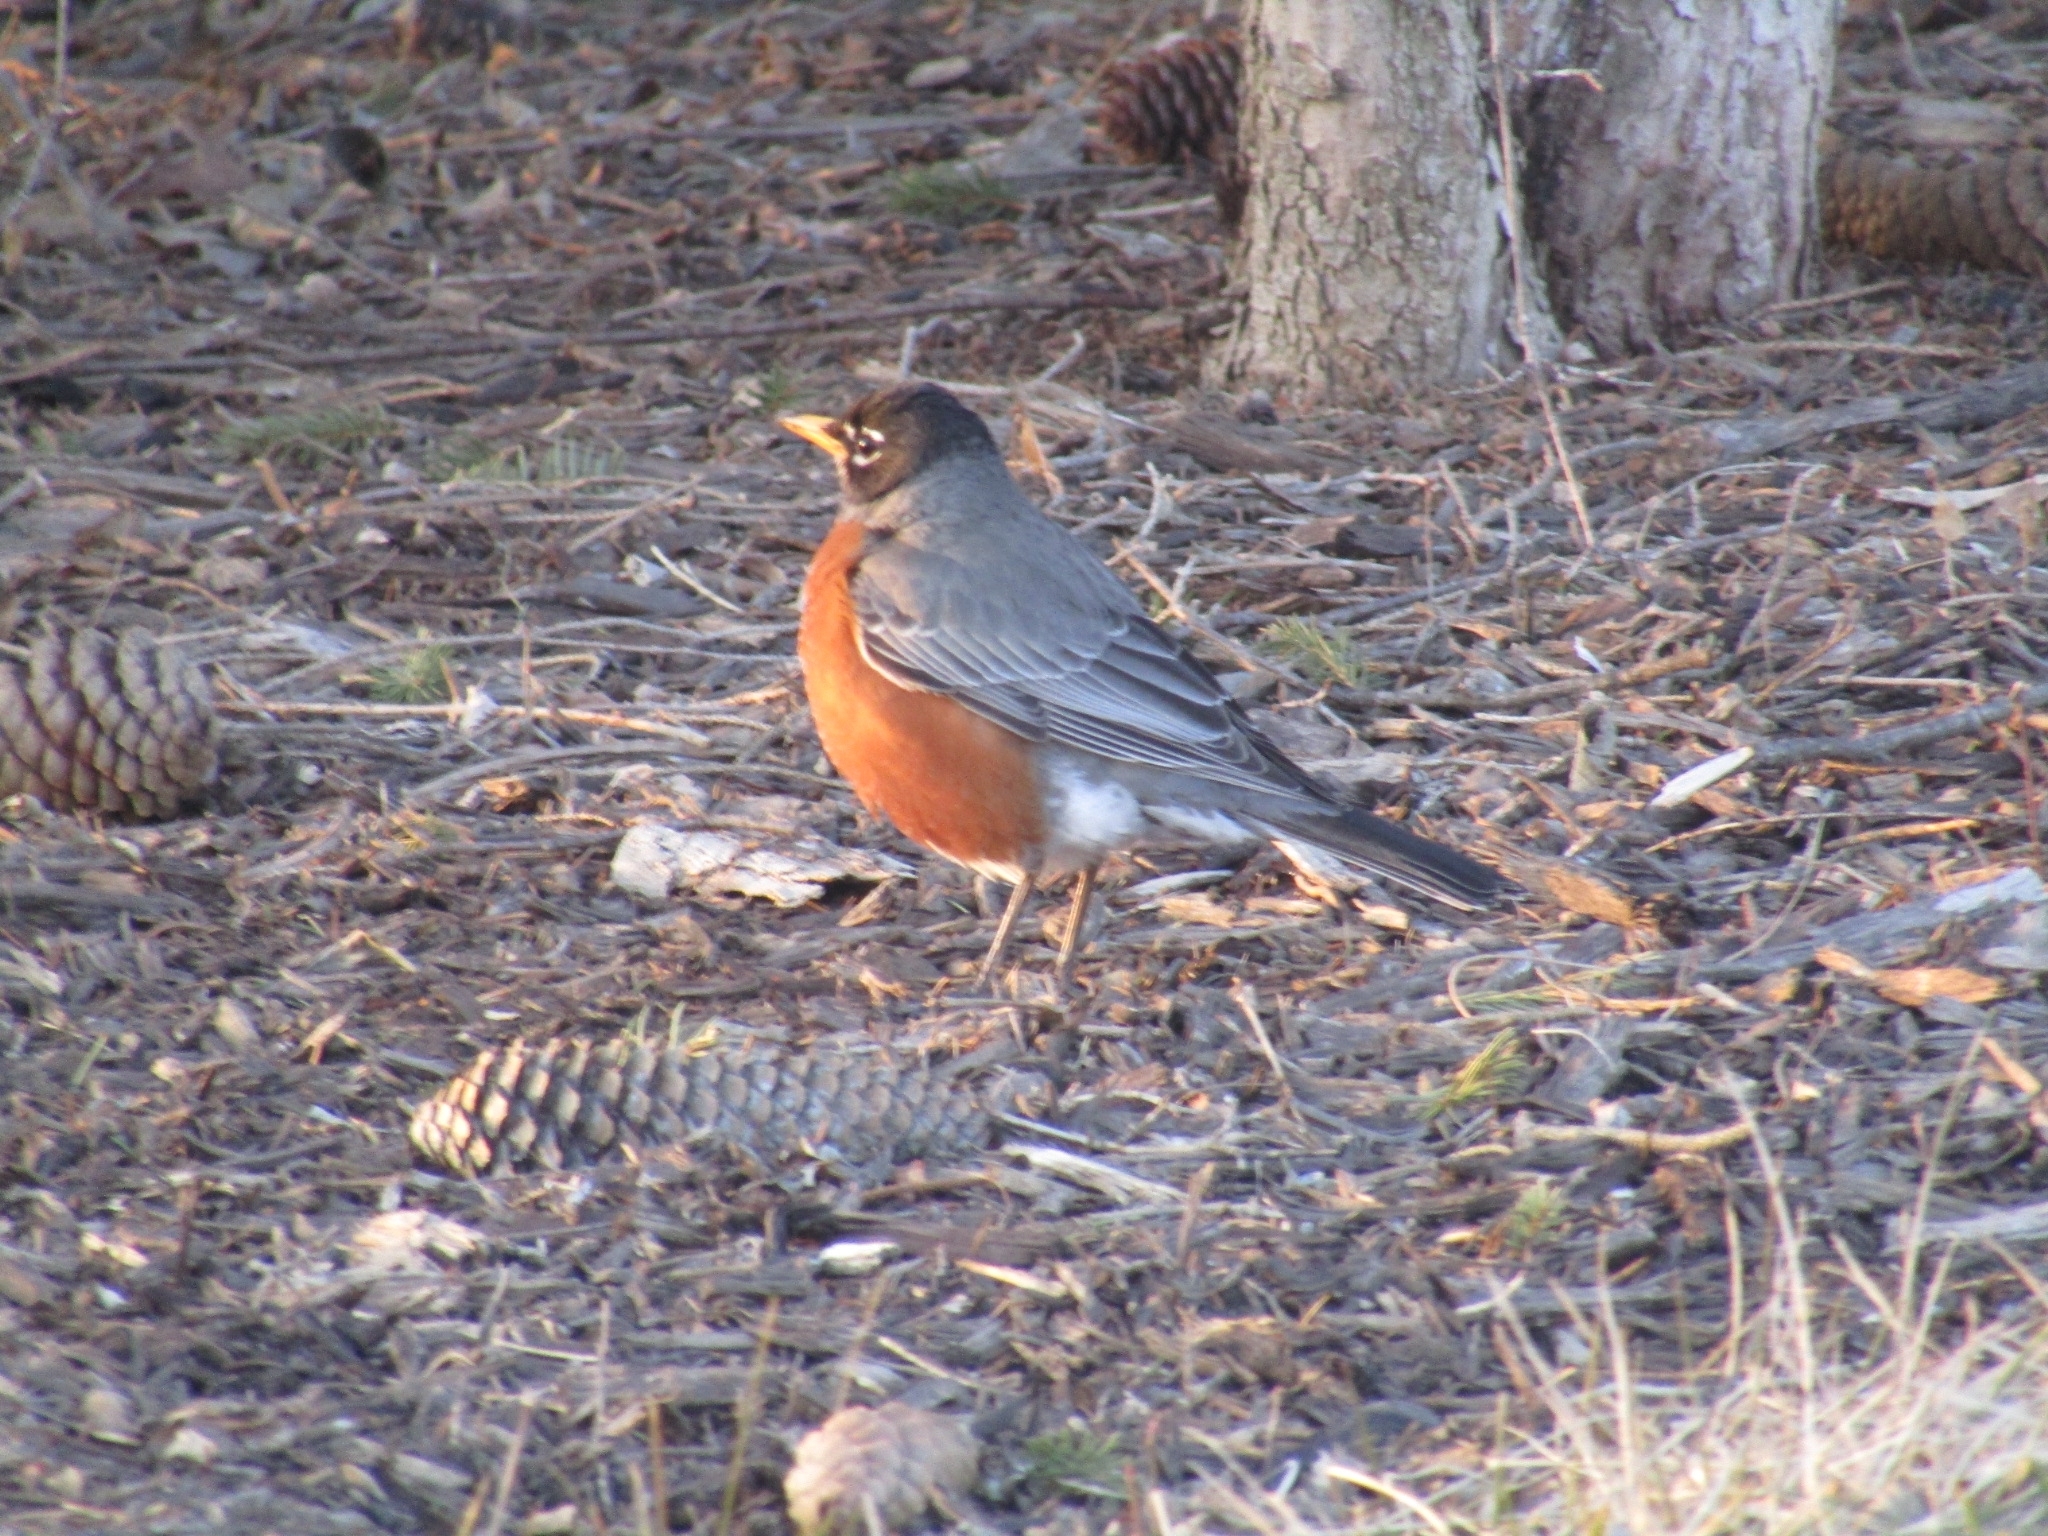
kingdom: Animalia
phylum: Chordata
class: Aves
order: Passeriformes
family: Turdidae
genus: Turdus
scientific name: Turdus migratorius
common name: American robin
